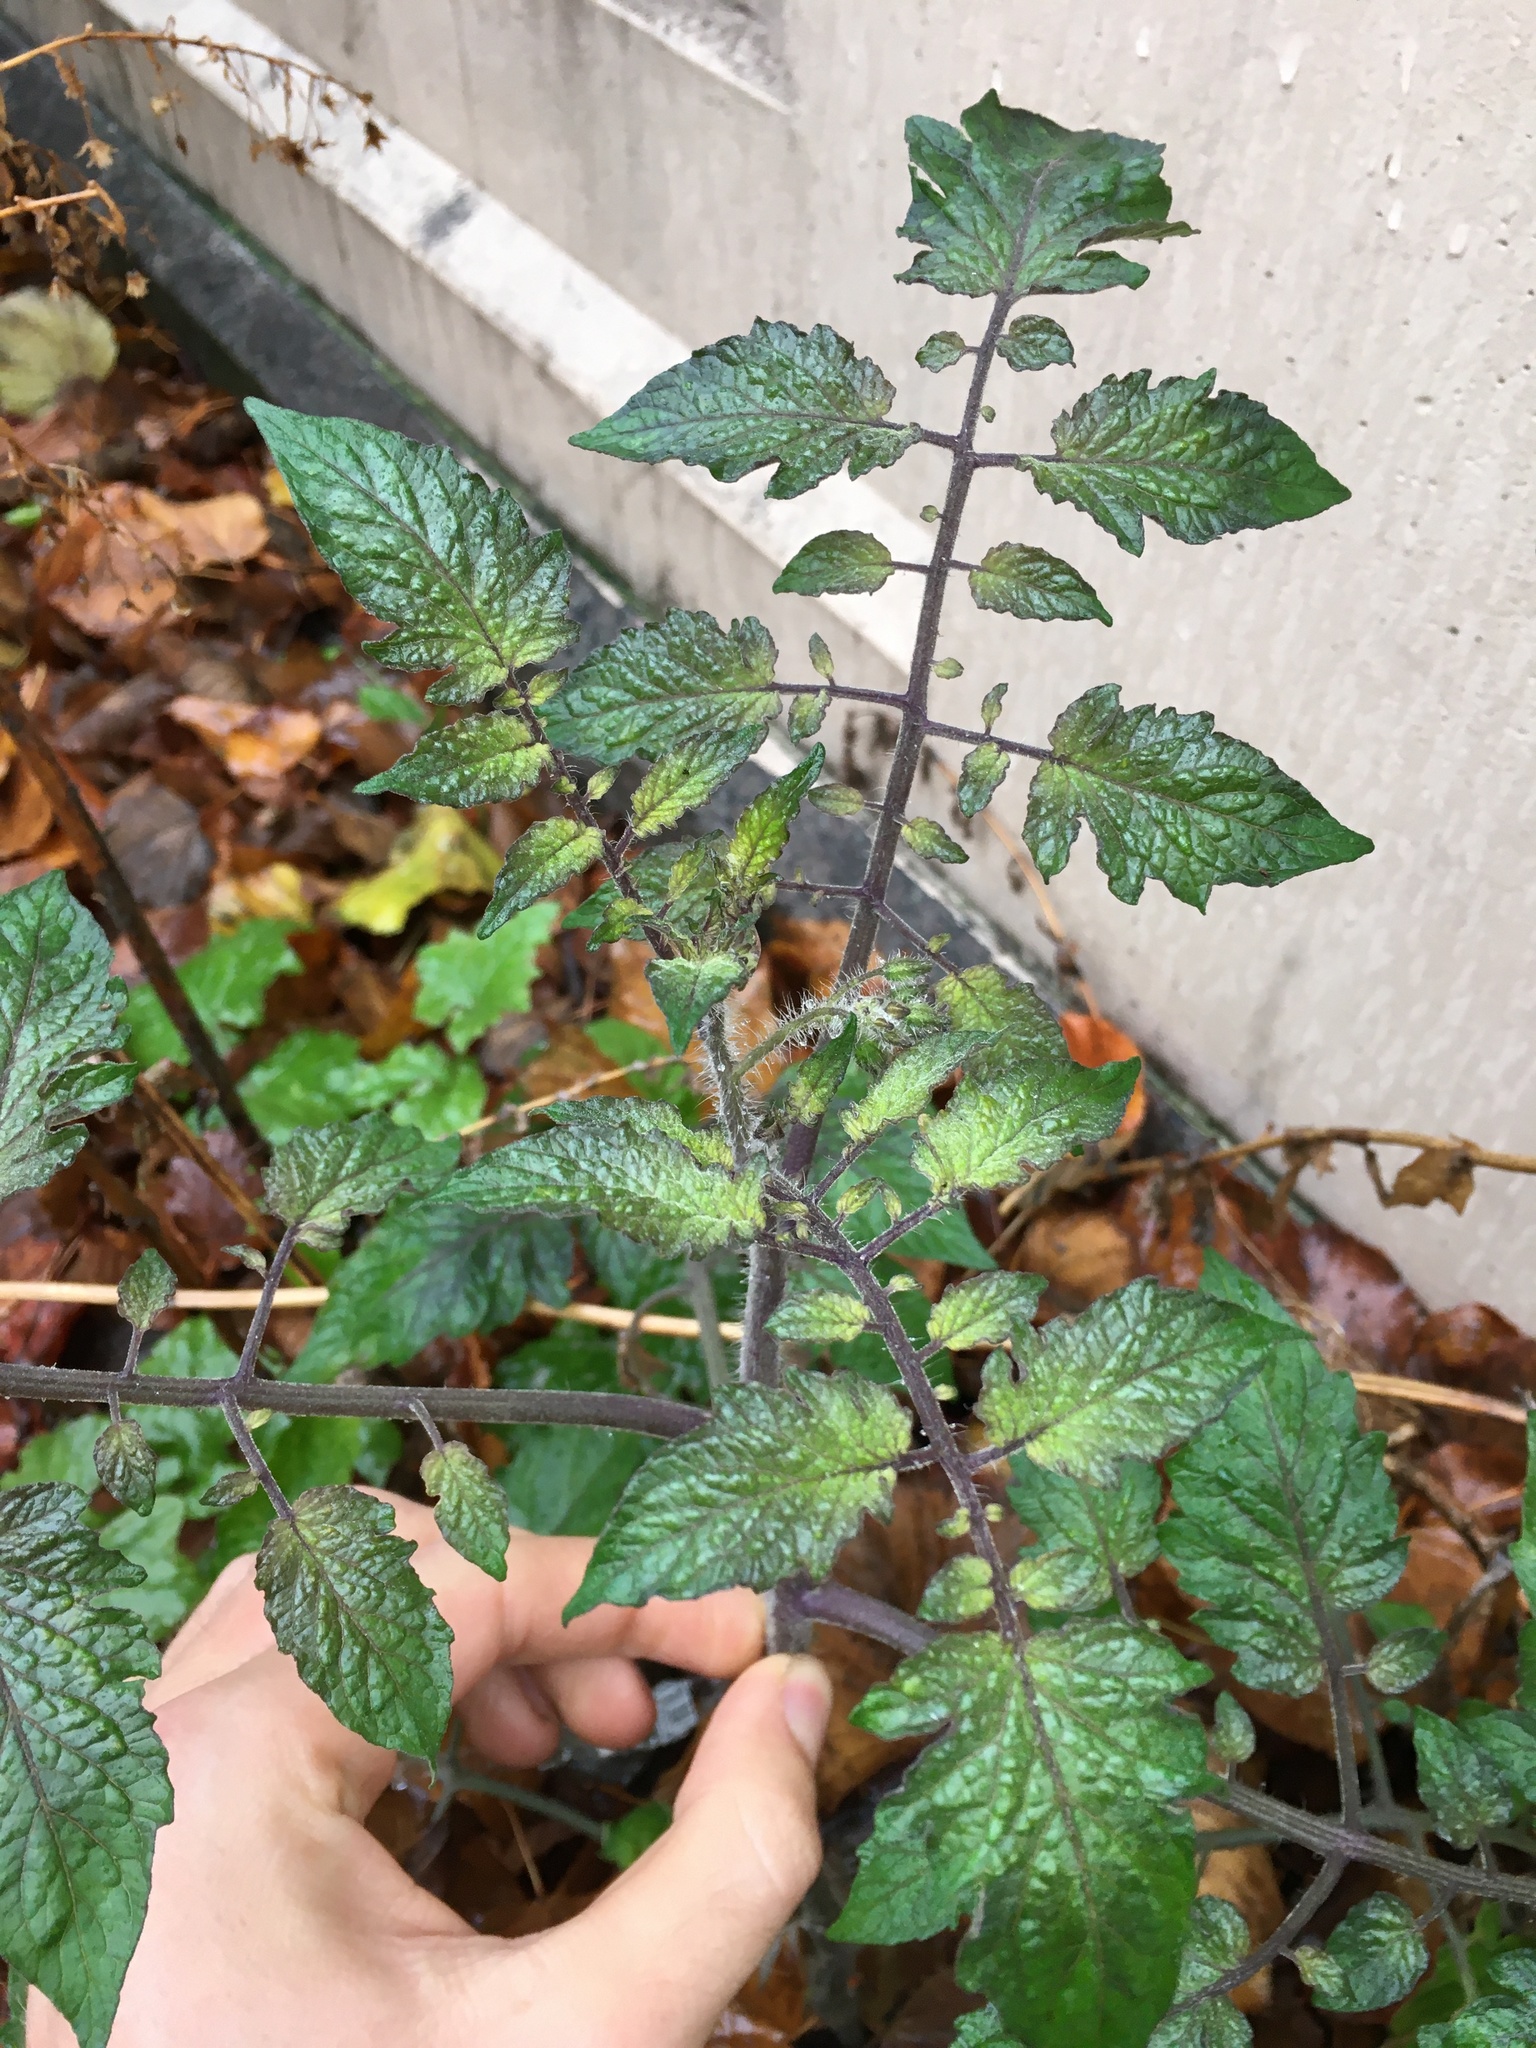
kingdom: Plantae
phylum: Tracheophyta
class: Magnoliopsida
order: Solanales
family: Solanaceae
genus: Solanum
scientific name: Solanum lycopersicum
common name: Garden tomato
